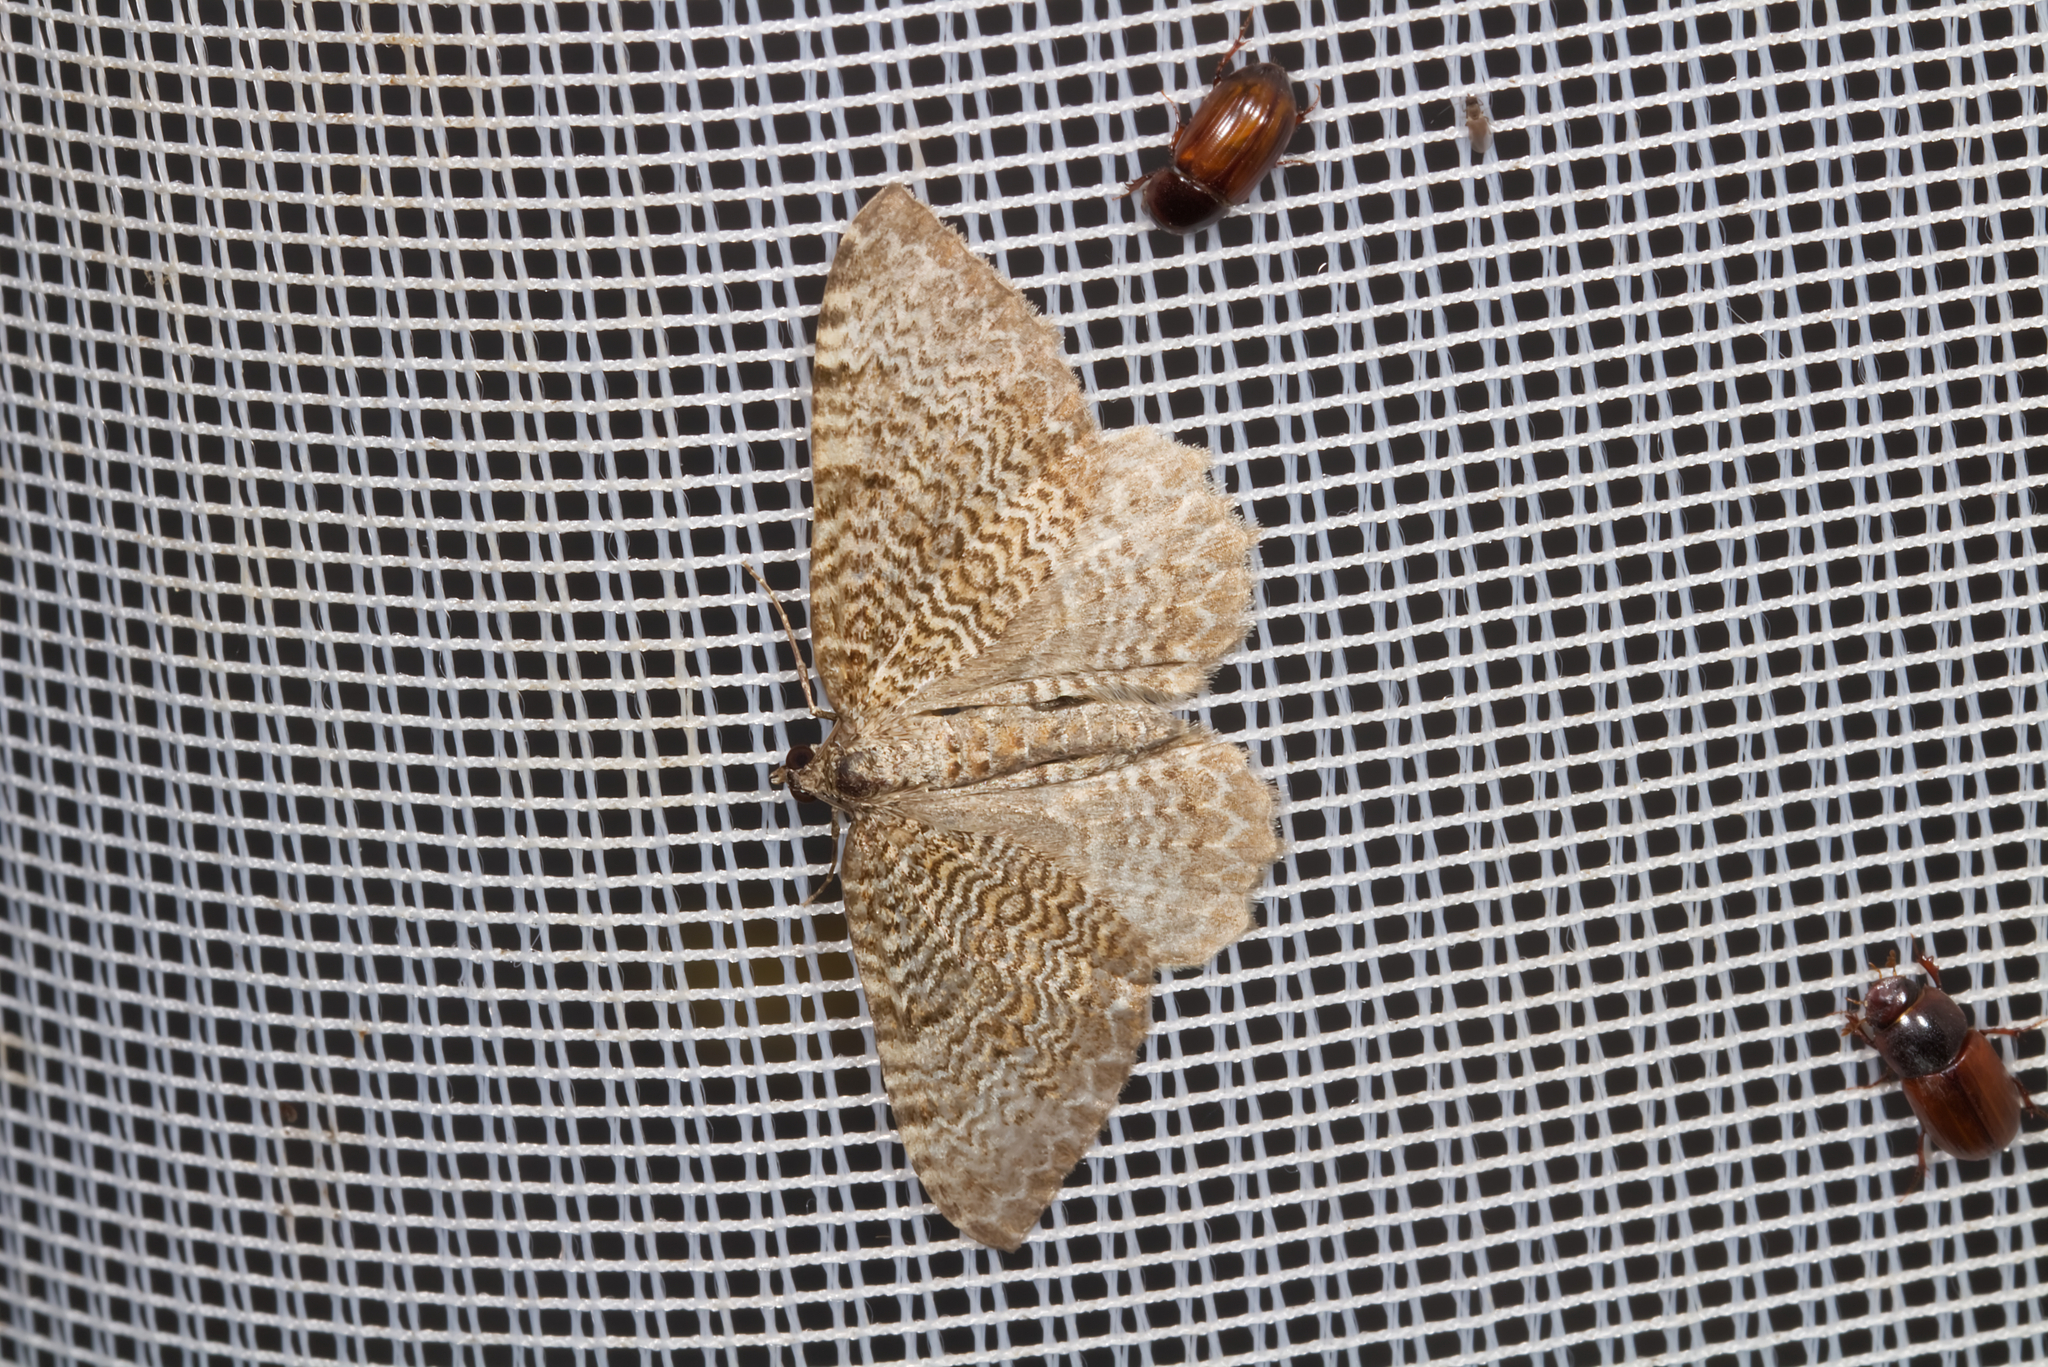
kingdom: Animalia
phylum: Arthropoda
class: Insecta
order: Lepidoptera
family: Geometridae
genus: Rheumaptera
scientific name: Rheumaptera undulata
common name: Scallop shell
